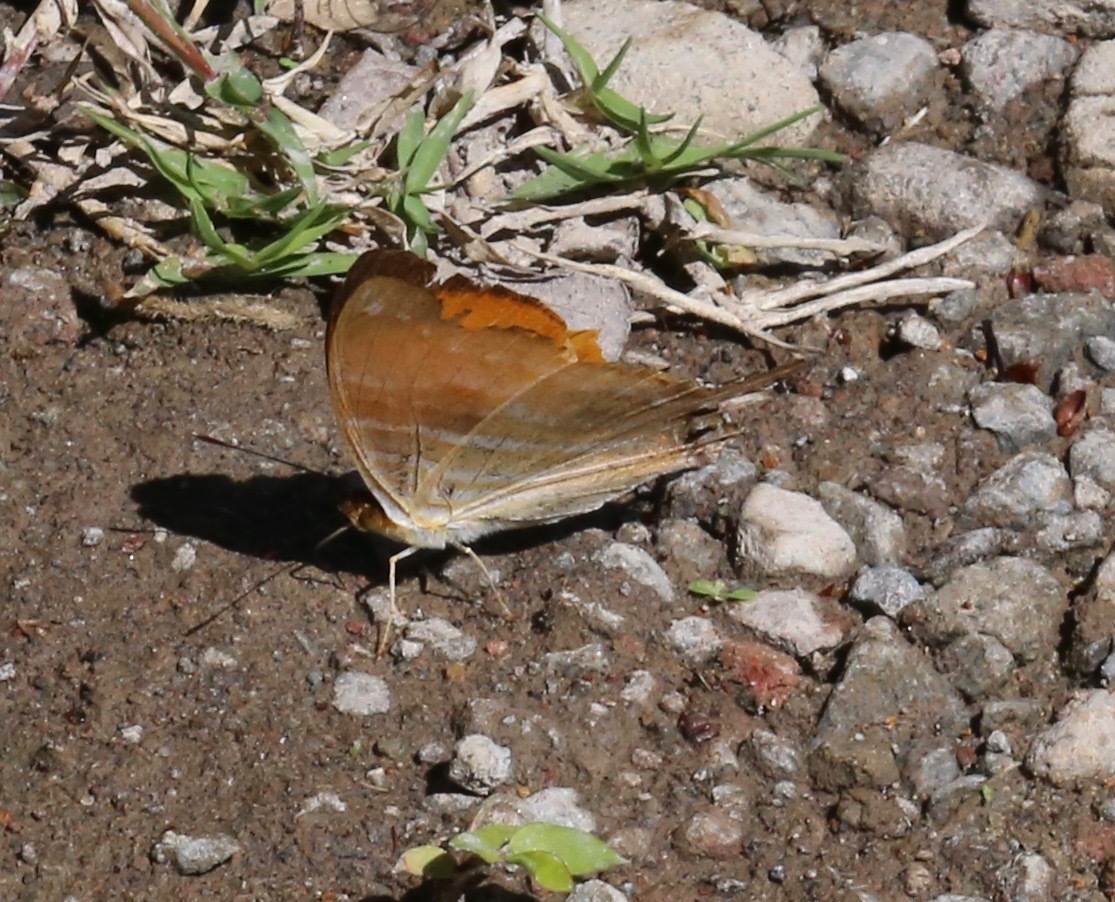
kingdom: Animalia
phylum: Arthropoda
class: Insecta
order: Lepidoptera
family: Nymphalidae
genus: Marpesia
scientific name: Marpesia marcella
